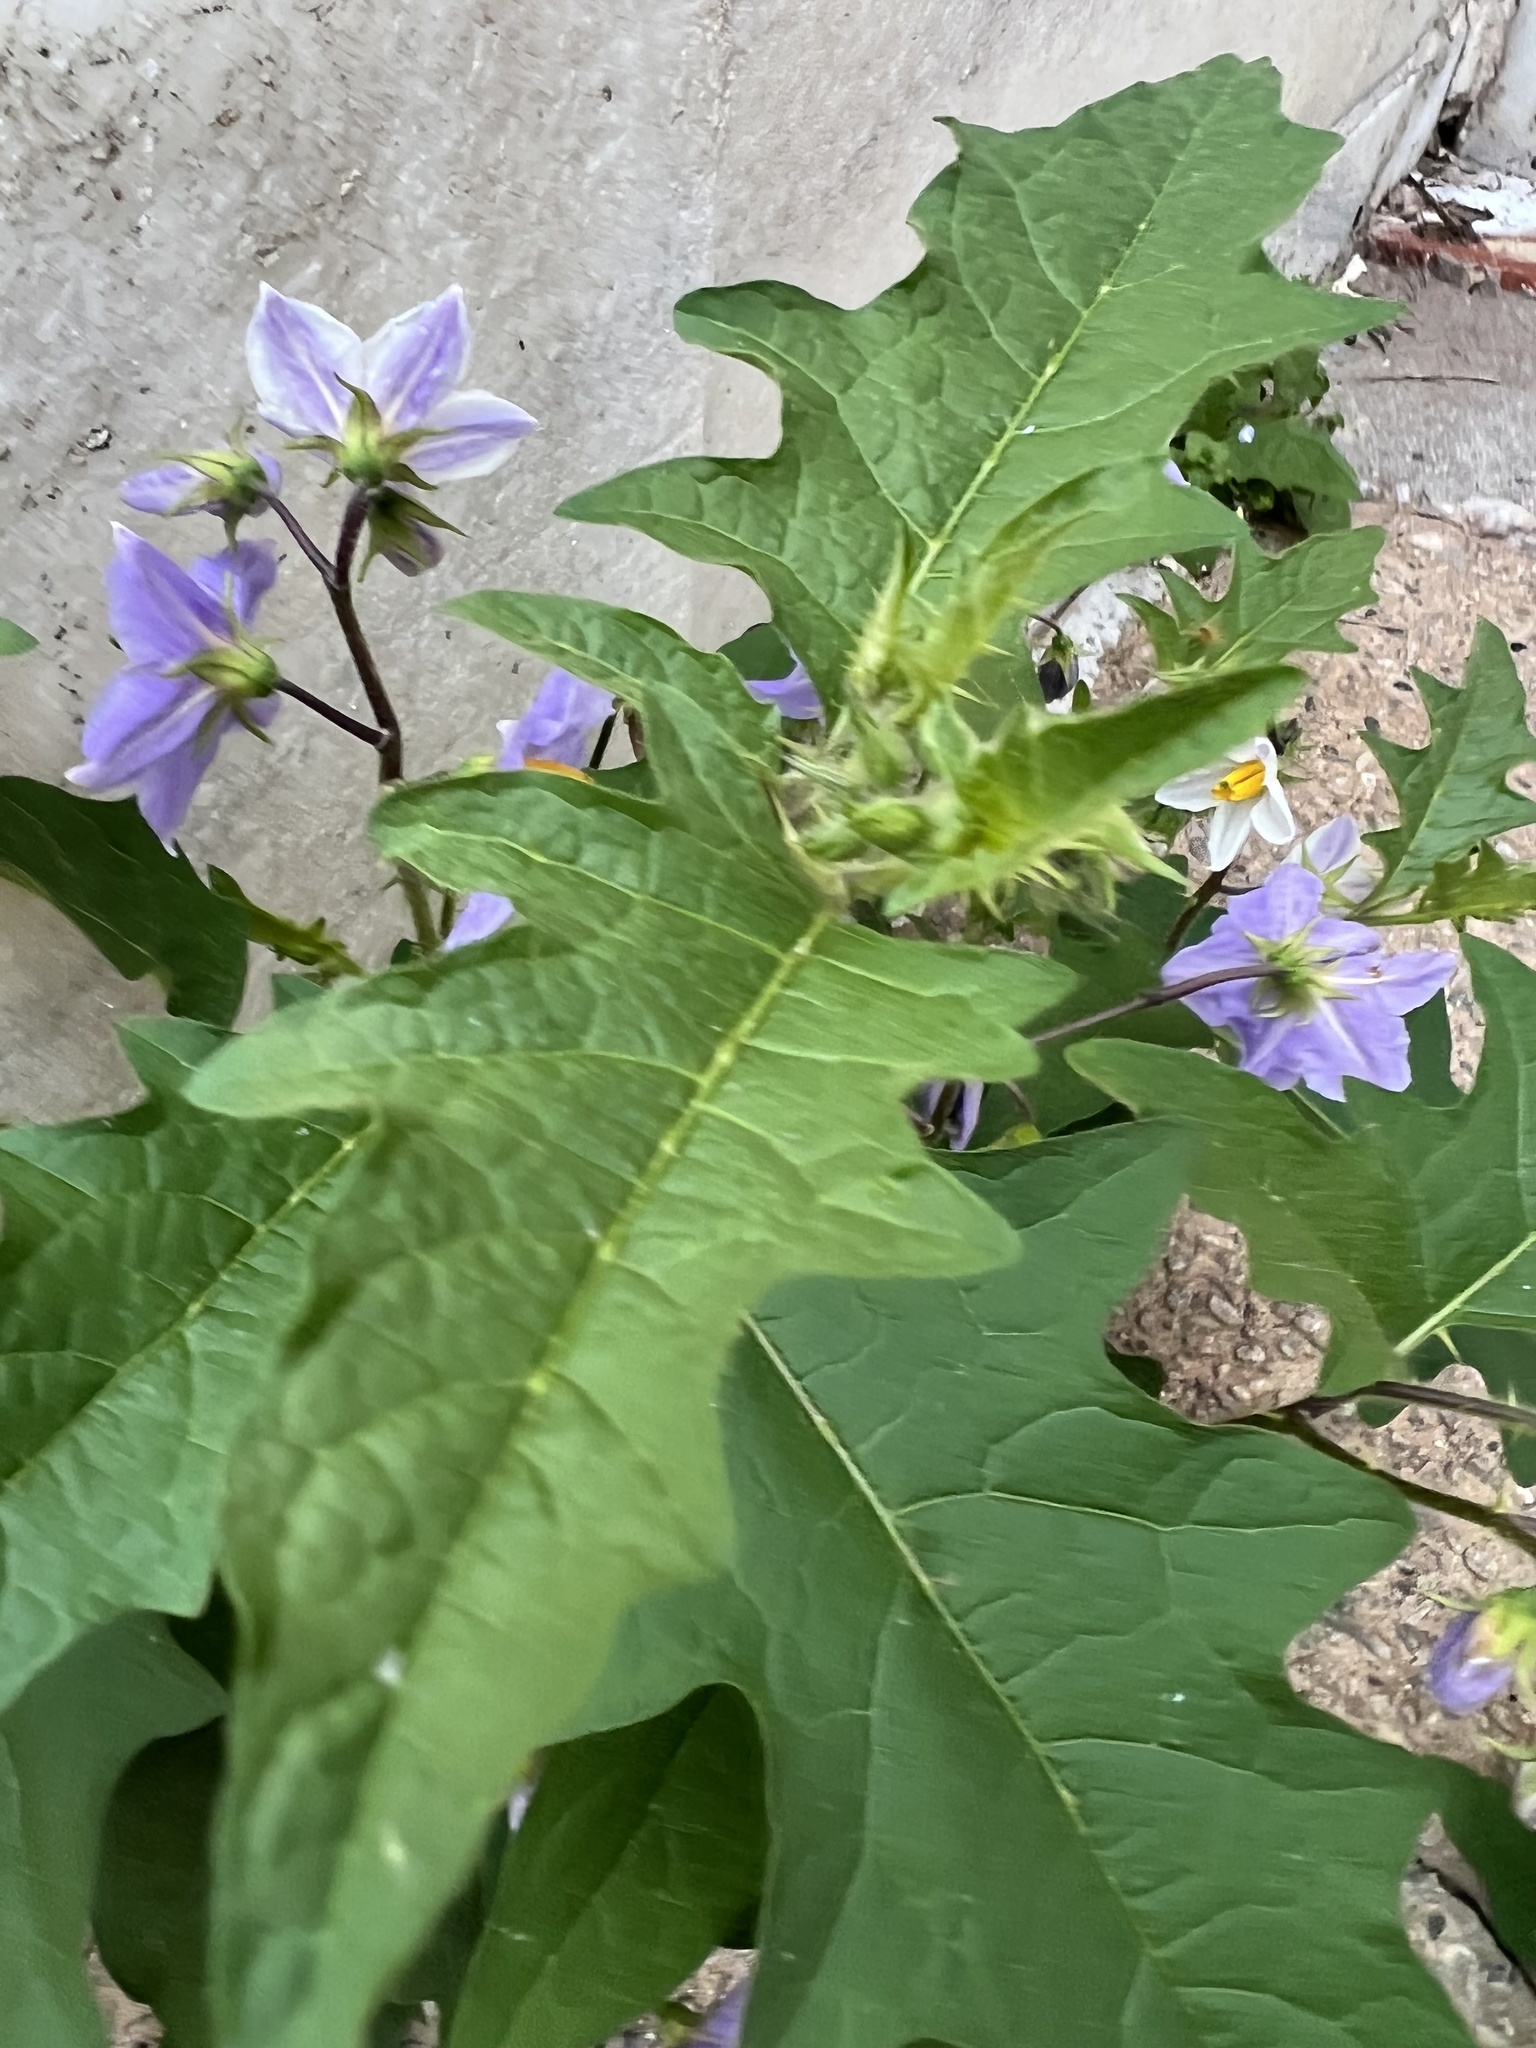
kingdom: Plantae
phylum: Tracheophyta
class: Magnoliopsida
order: Solanales
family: Solanaceae
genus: Solanum
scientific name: Solanum carolinense
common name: Horse-nettle
